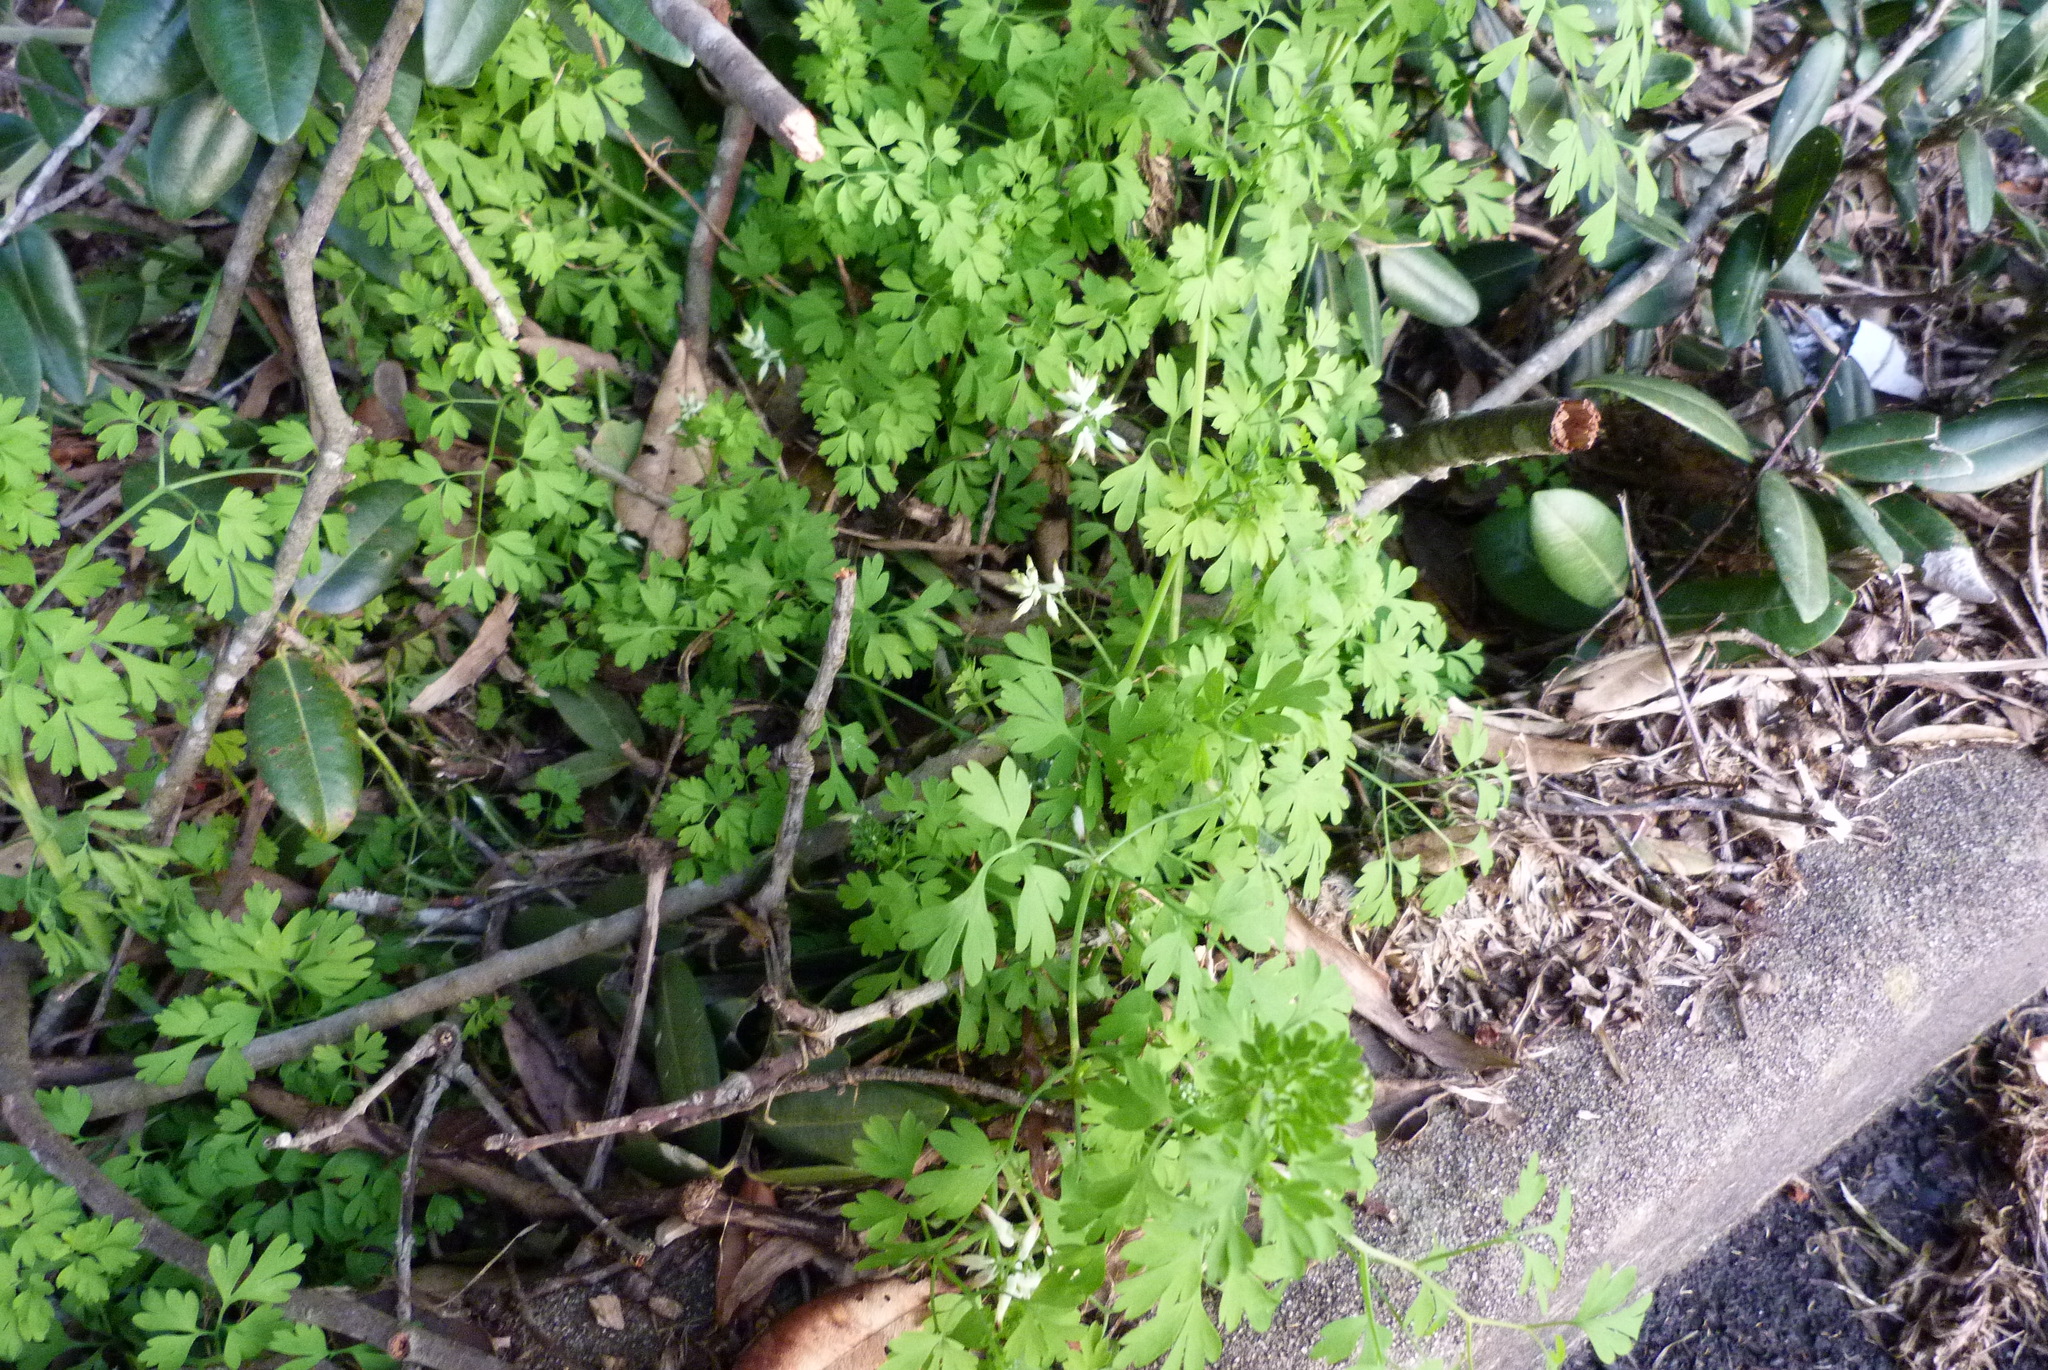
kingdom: Plantae
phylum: Tracheophyta
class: Magnoliopsida
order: Ranunculales
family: Papaveraceae
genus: Fumaria
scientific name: Fumaria capreolata
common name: White ramping-fumitory
